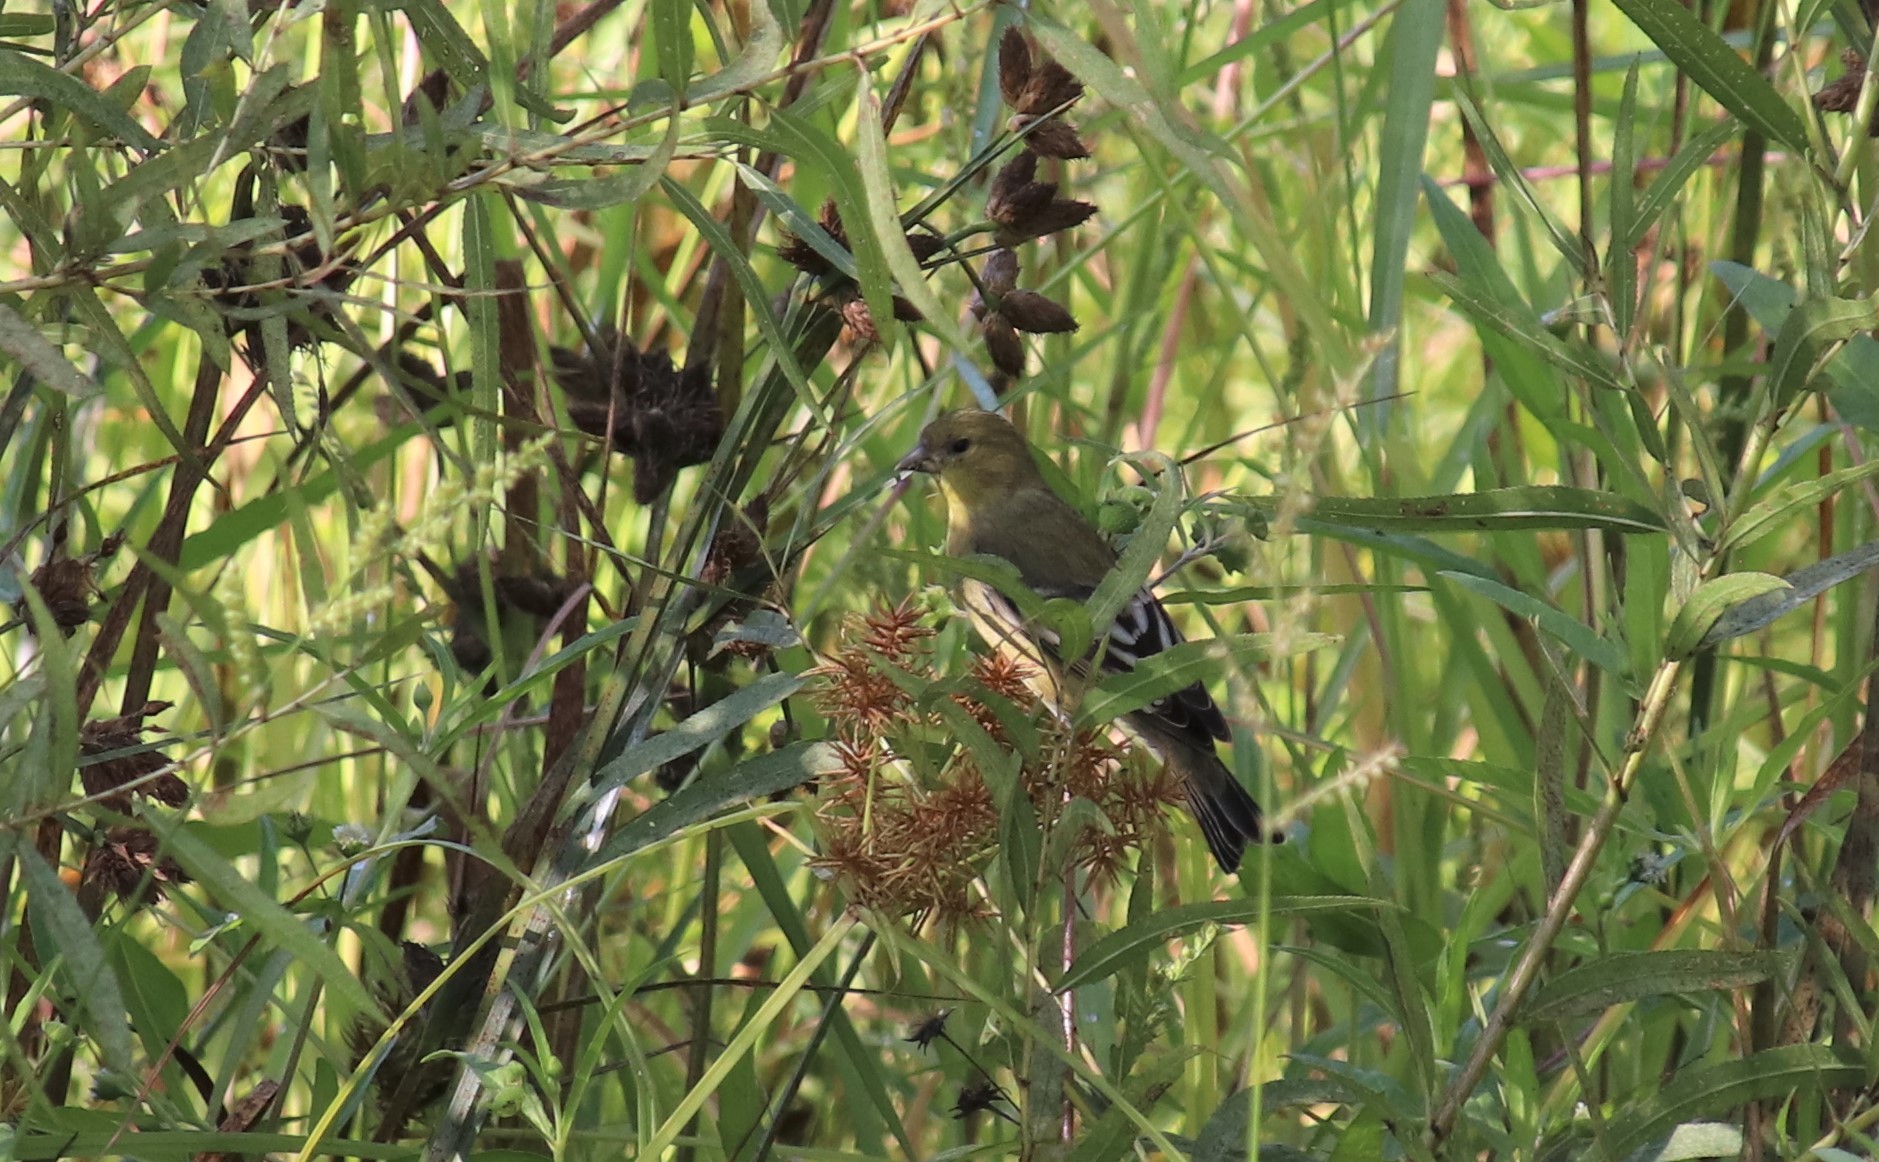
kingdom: Animalia
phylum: Chordata
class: Aves
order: Passeriformes
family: Fringillidae
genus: Spinus
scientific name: Spinus psaltria
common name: Lesser goldfinch
